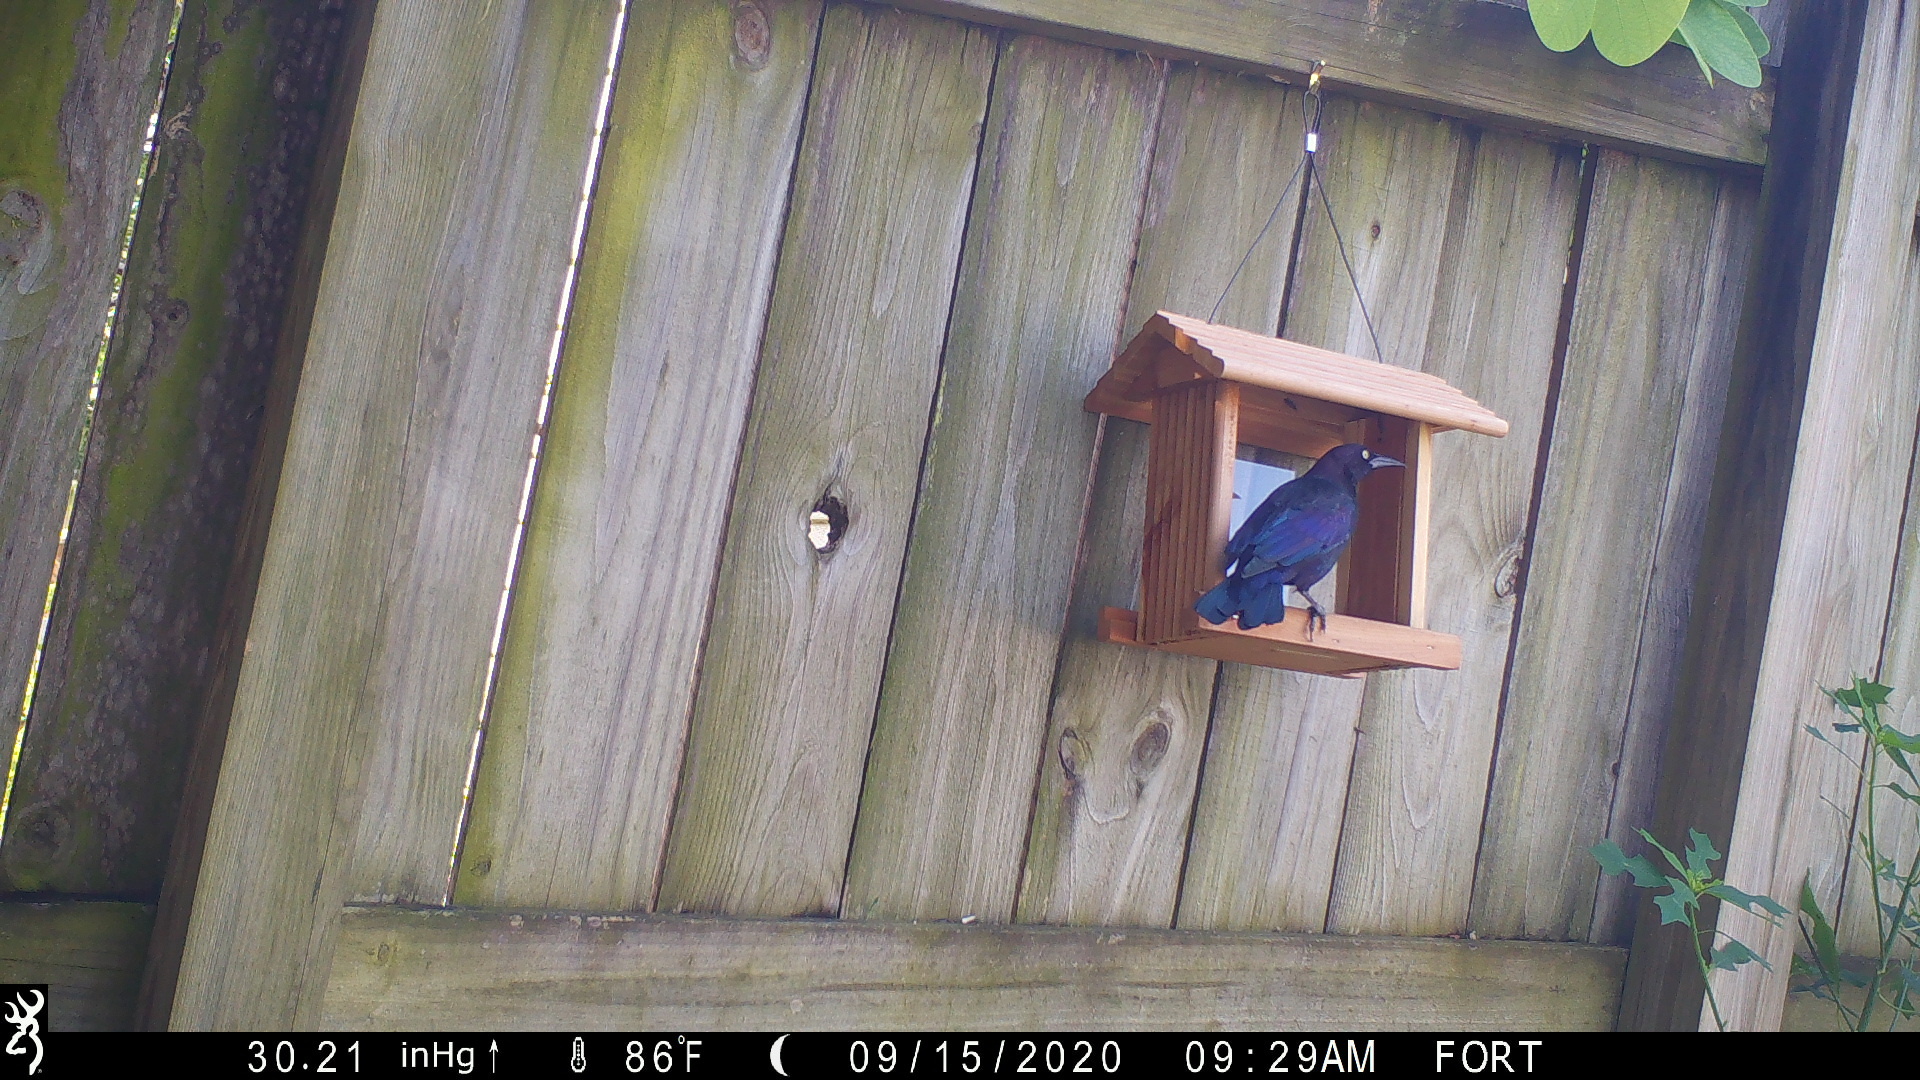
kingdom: Animalia
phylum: Chordata
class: Aves
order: Passeriformes
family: Icteridae
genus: Quiscalus
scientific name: Quiscalus quiscula
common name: Common grackle
